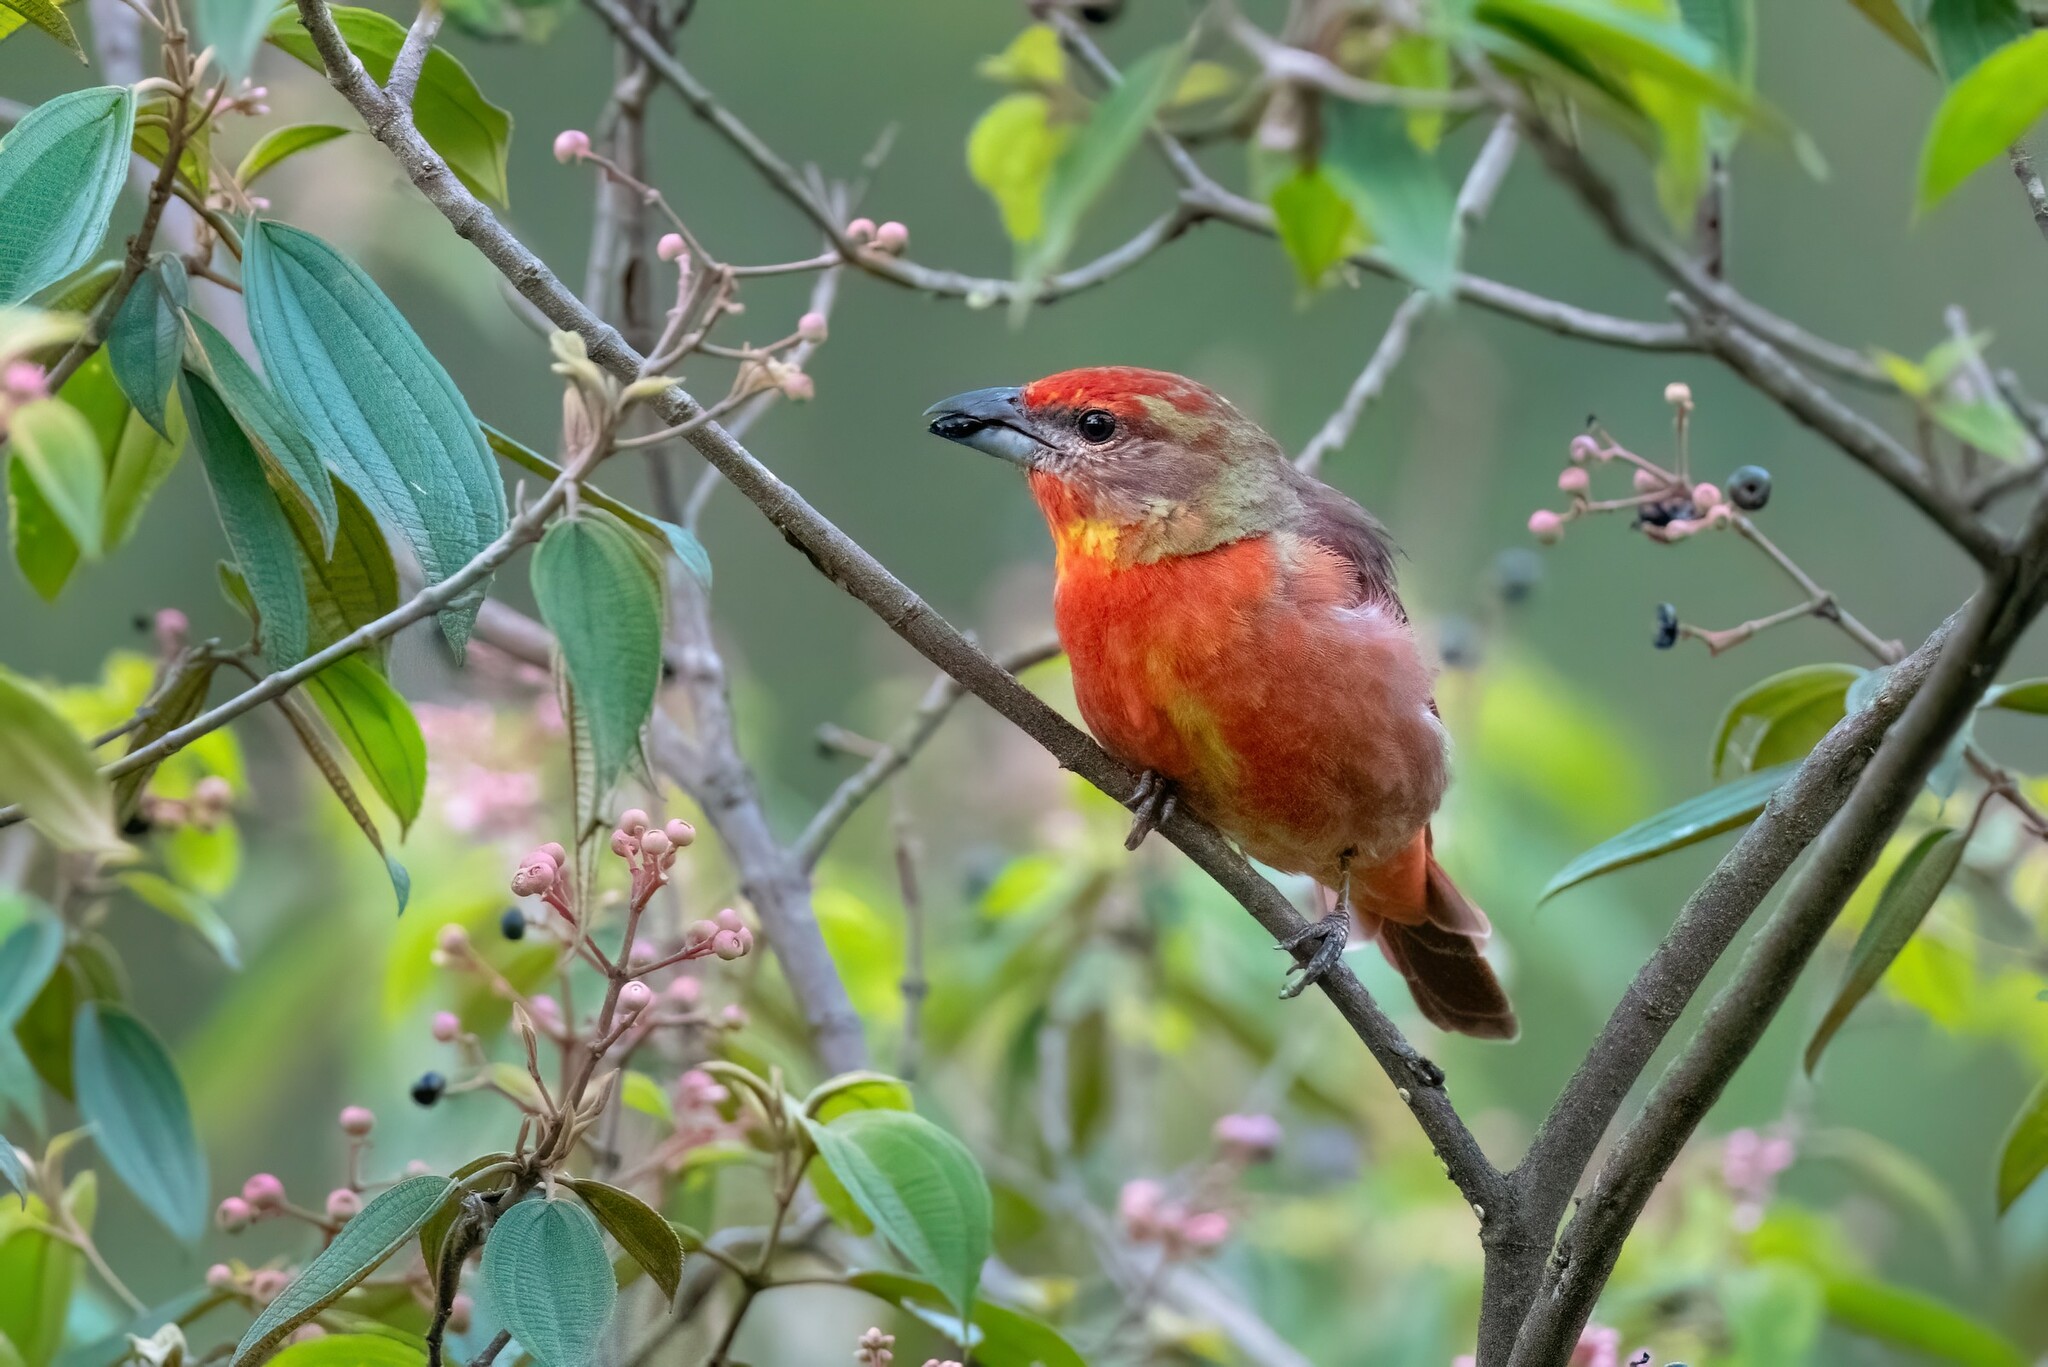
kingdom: Animalia
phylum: Chordata
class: Aves
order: Passeriformes
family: Cardinalidae
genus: Piranga
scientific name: Piranga flava
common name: Red tanager
